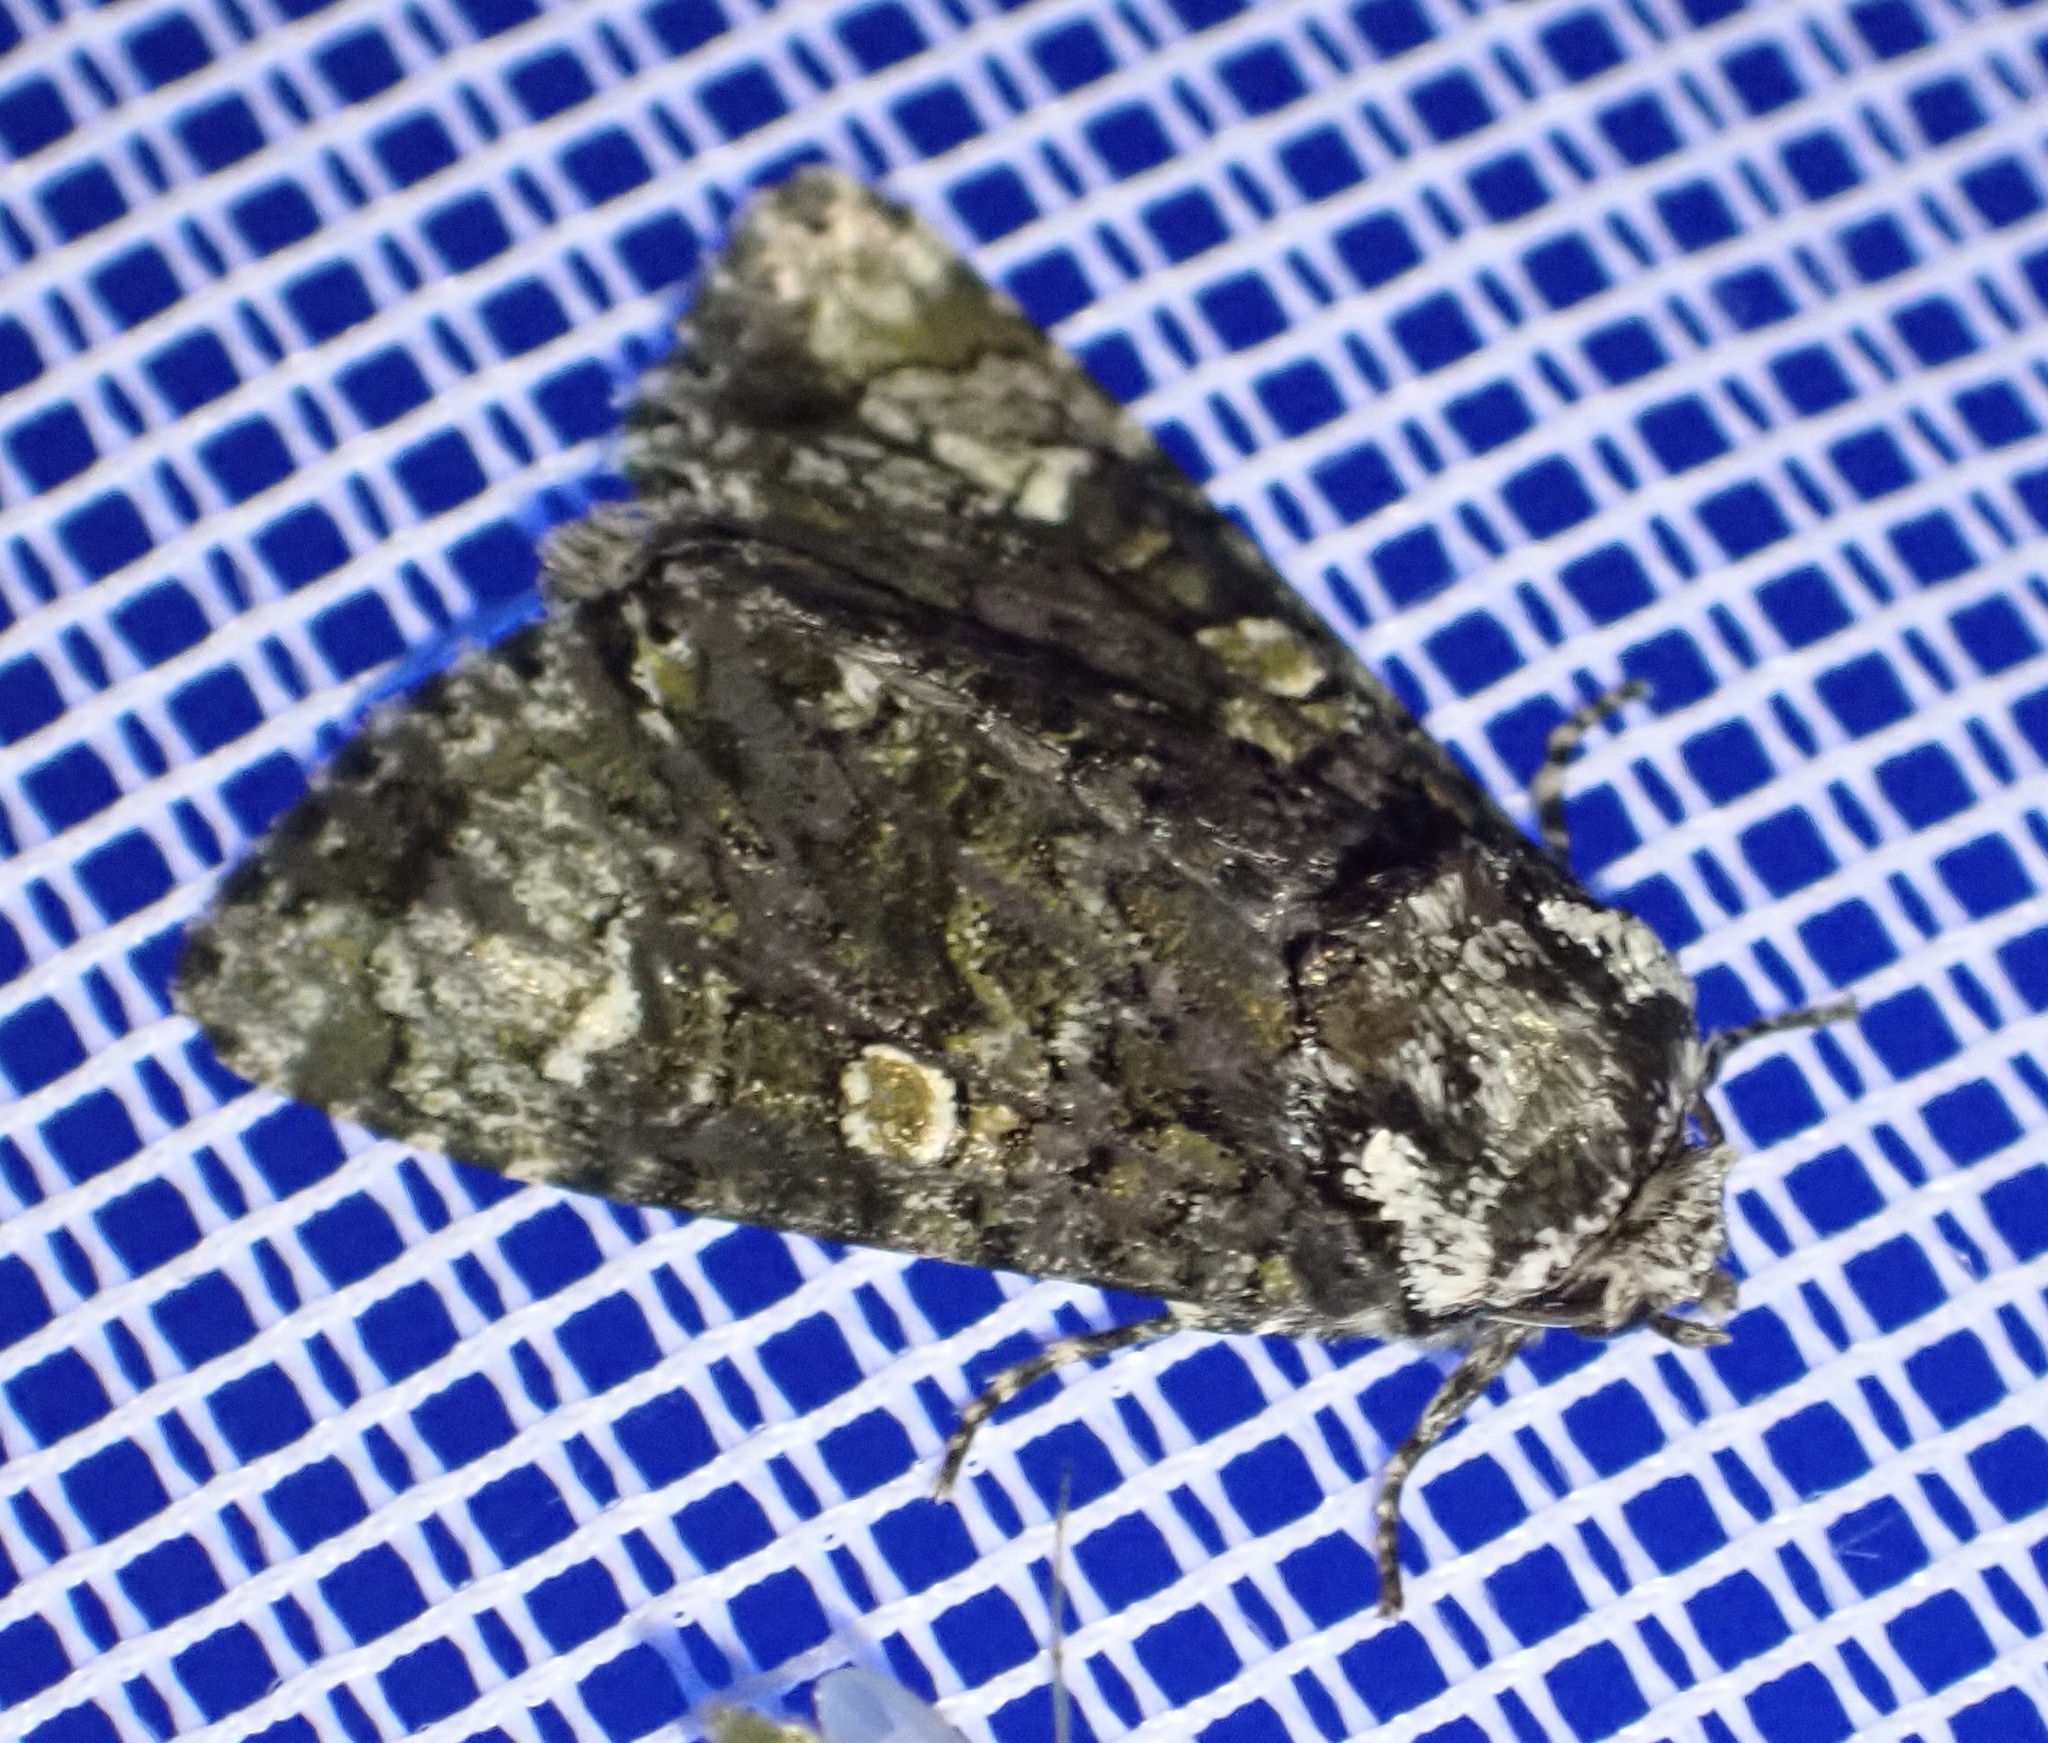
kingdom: Animalia
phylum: Arthropoda
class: Insecta
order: Lepidoptera
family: Noctuidae
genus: Craniophora
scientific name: Craniophora ligustri
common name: Coronet
